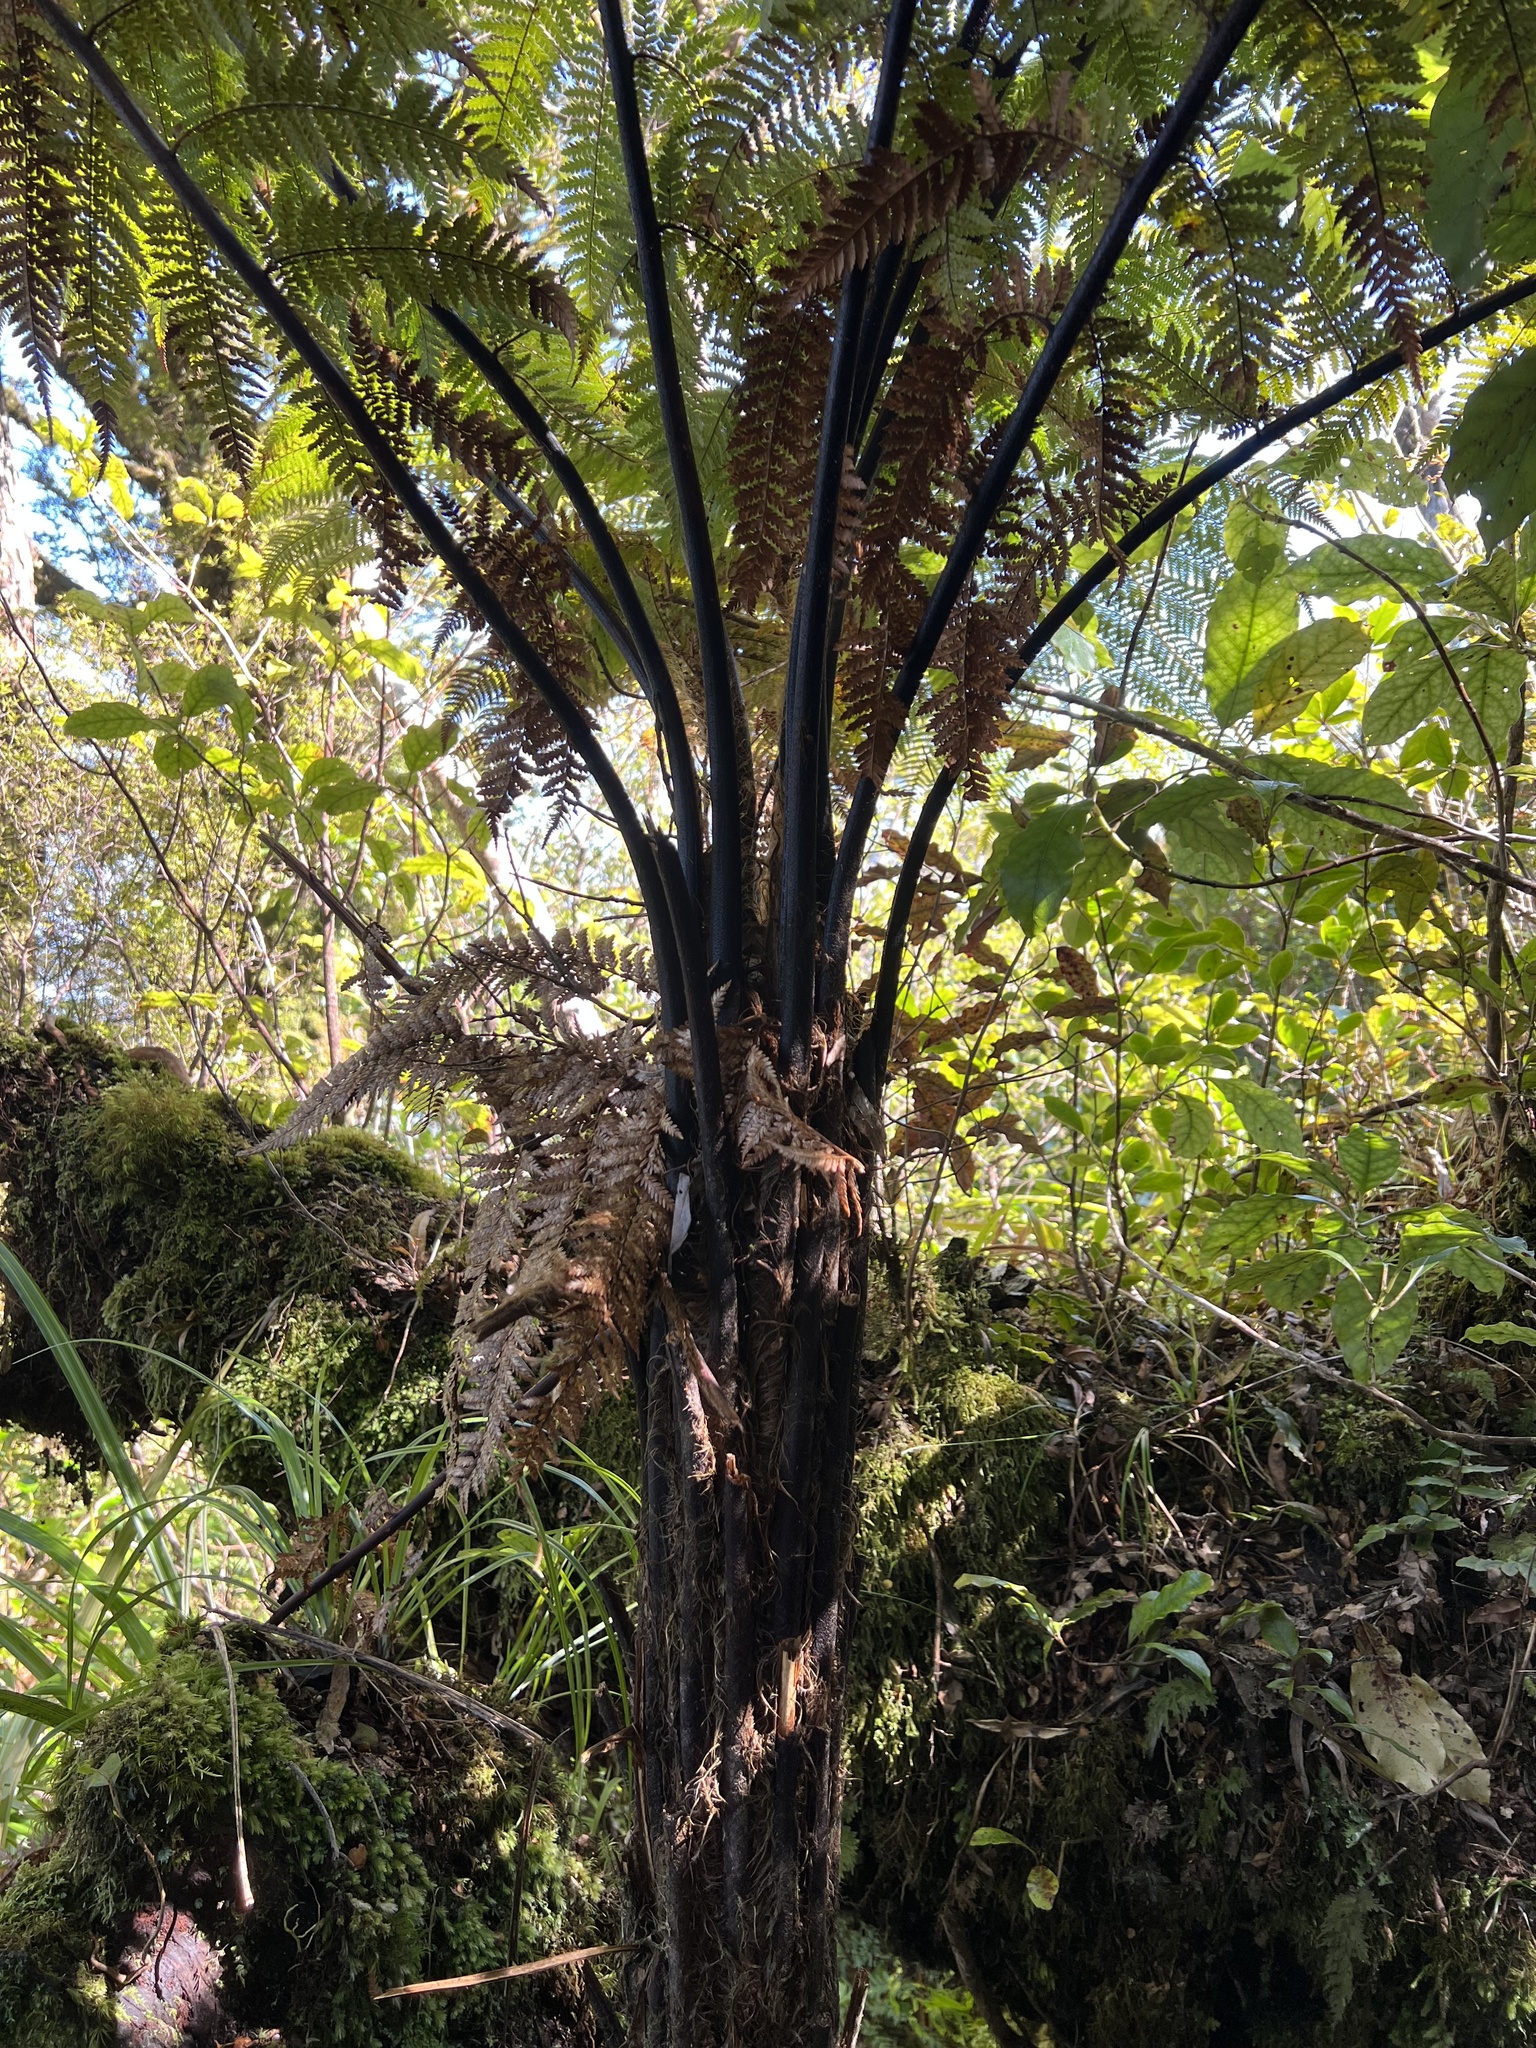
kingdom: Plantae
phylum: Tracheophyta
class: Polypodiopsida
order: Cyatheales
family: Dicksoniaceae
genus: Dicksonia
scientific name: Dicksonia squarrosa
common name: Hard treefern
